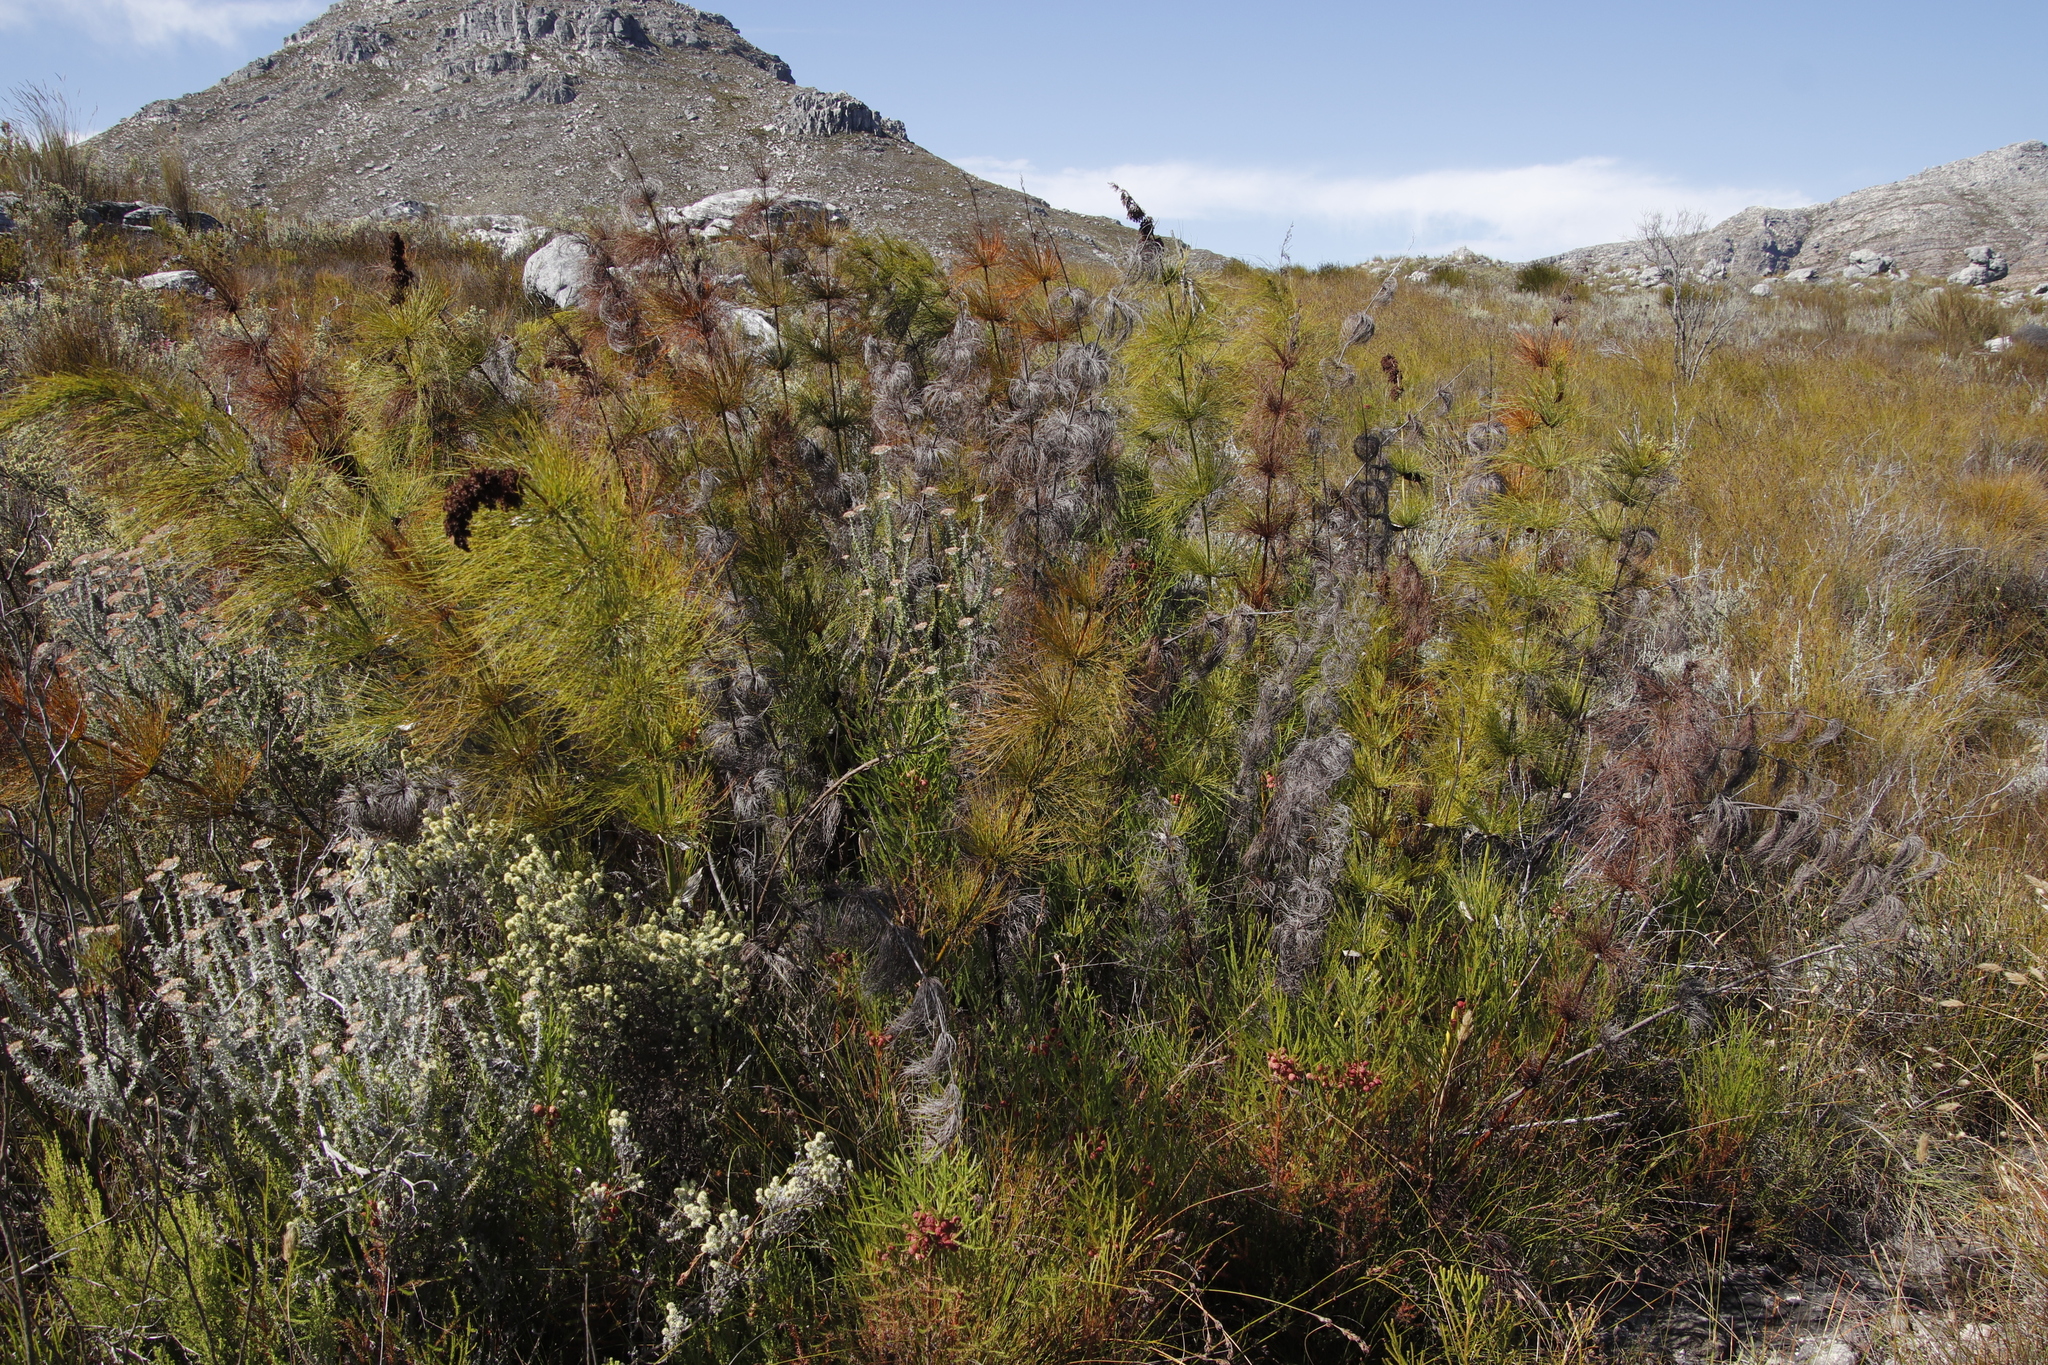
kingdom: Plantae
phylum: Tracheophyta
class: Liliopsida
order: Poales
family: Restionaceae
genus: Elegia
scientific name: Elegia capensis
